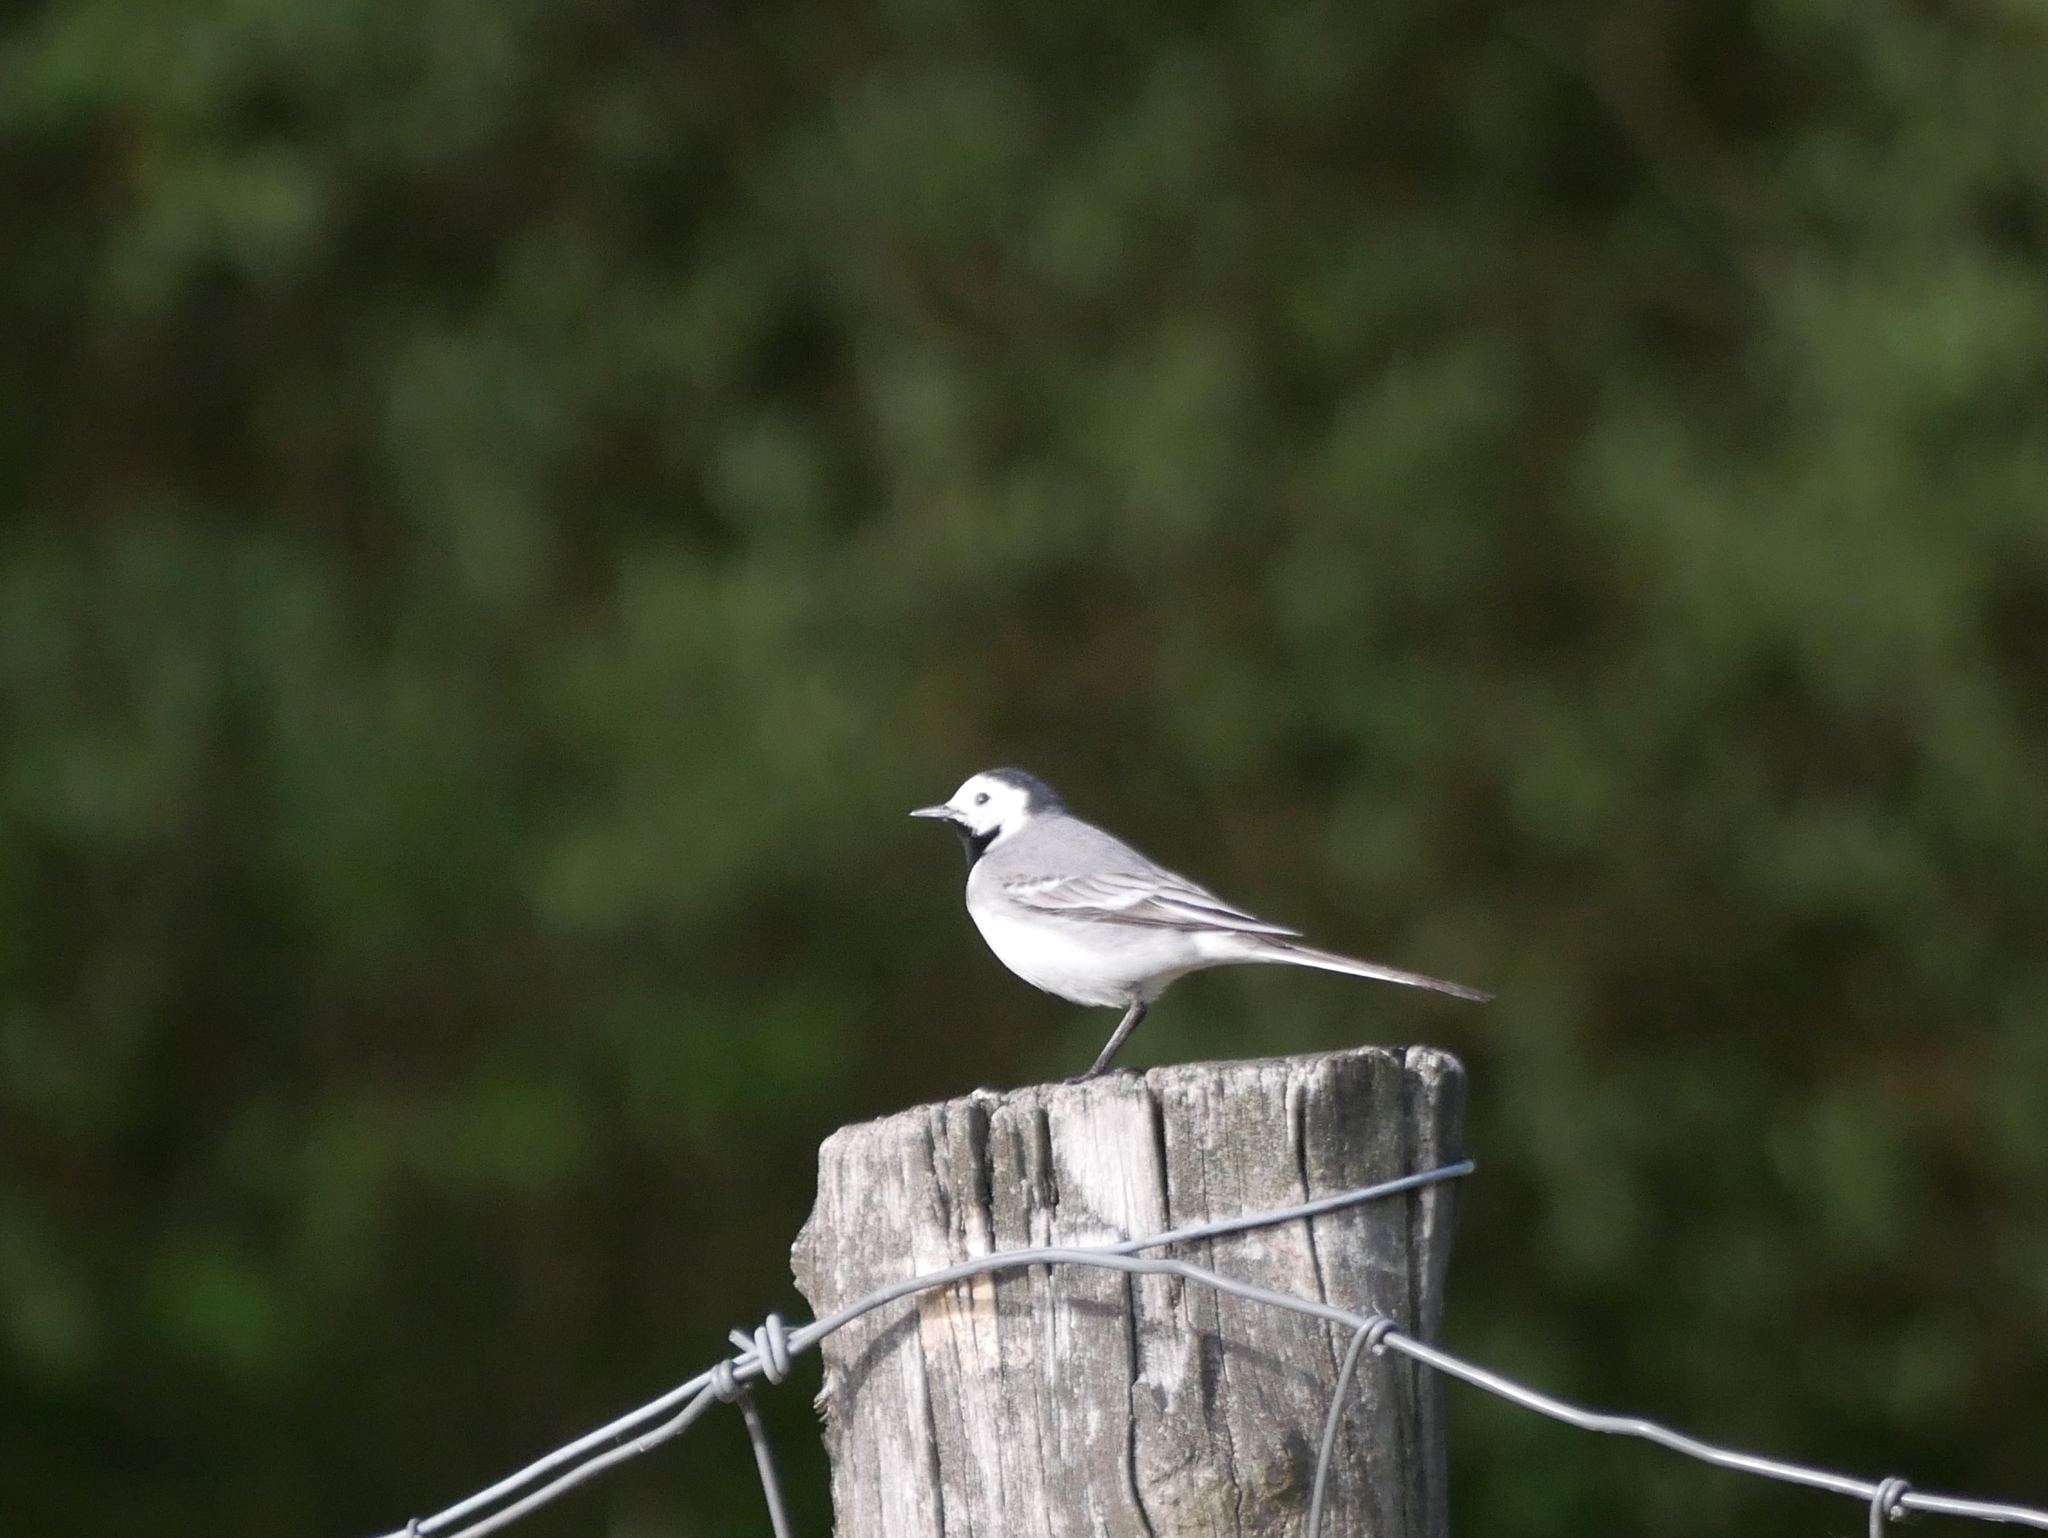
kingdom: Animalia
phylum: Chordata
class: Aves
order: Passeriformes
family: Motacillidae
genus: Motacilla
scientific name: Motacilla alba
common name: White wagtail
